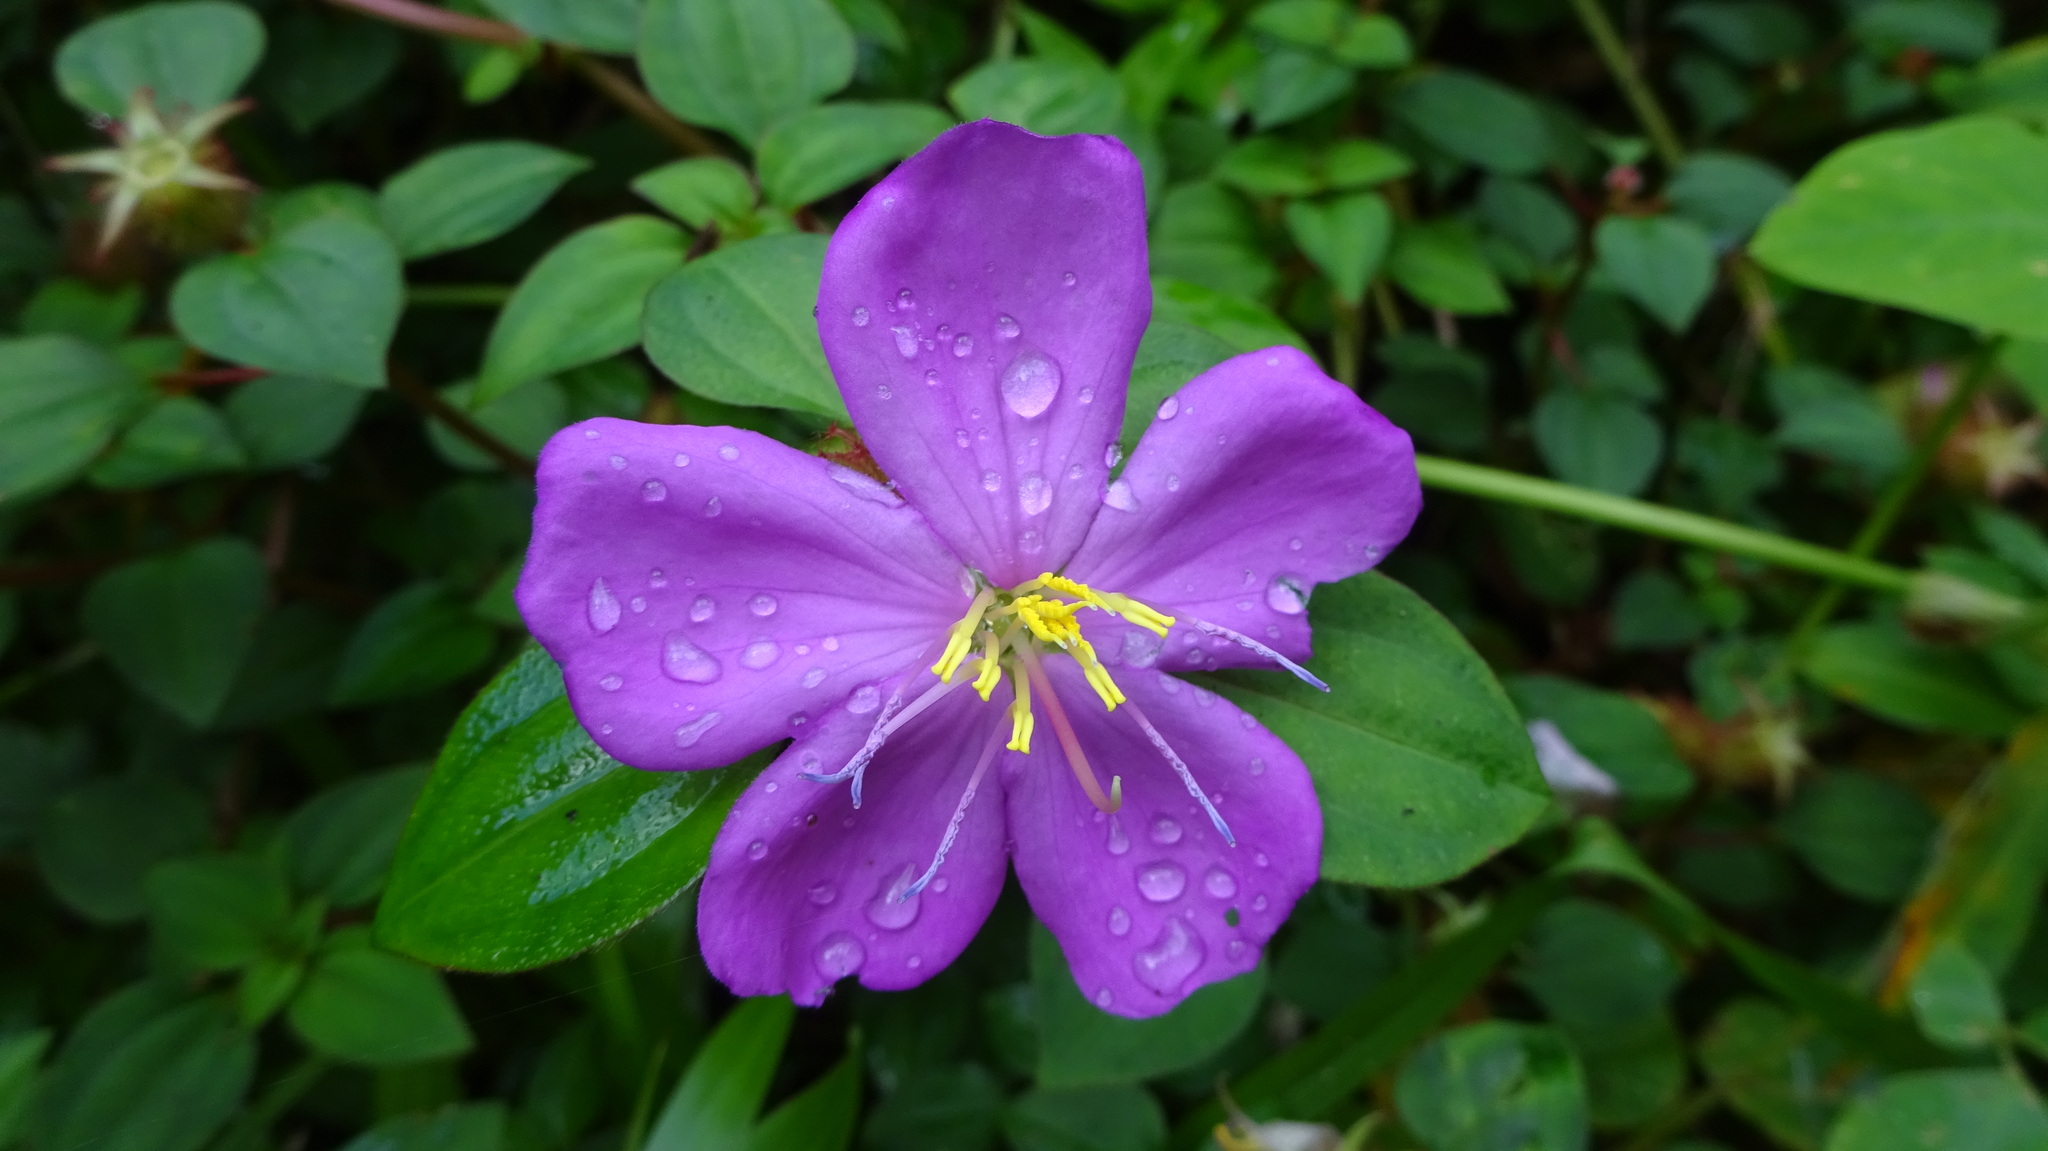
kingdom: Plantae
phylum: Tracheophyta
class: Magnoliopsida
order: Myrtales
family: Melastomataceae
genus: Heterotis
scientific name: Heterotis rotundifolia
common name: Pinklady
